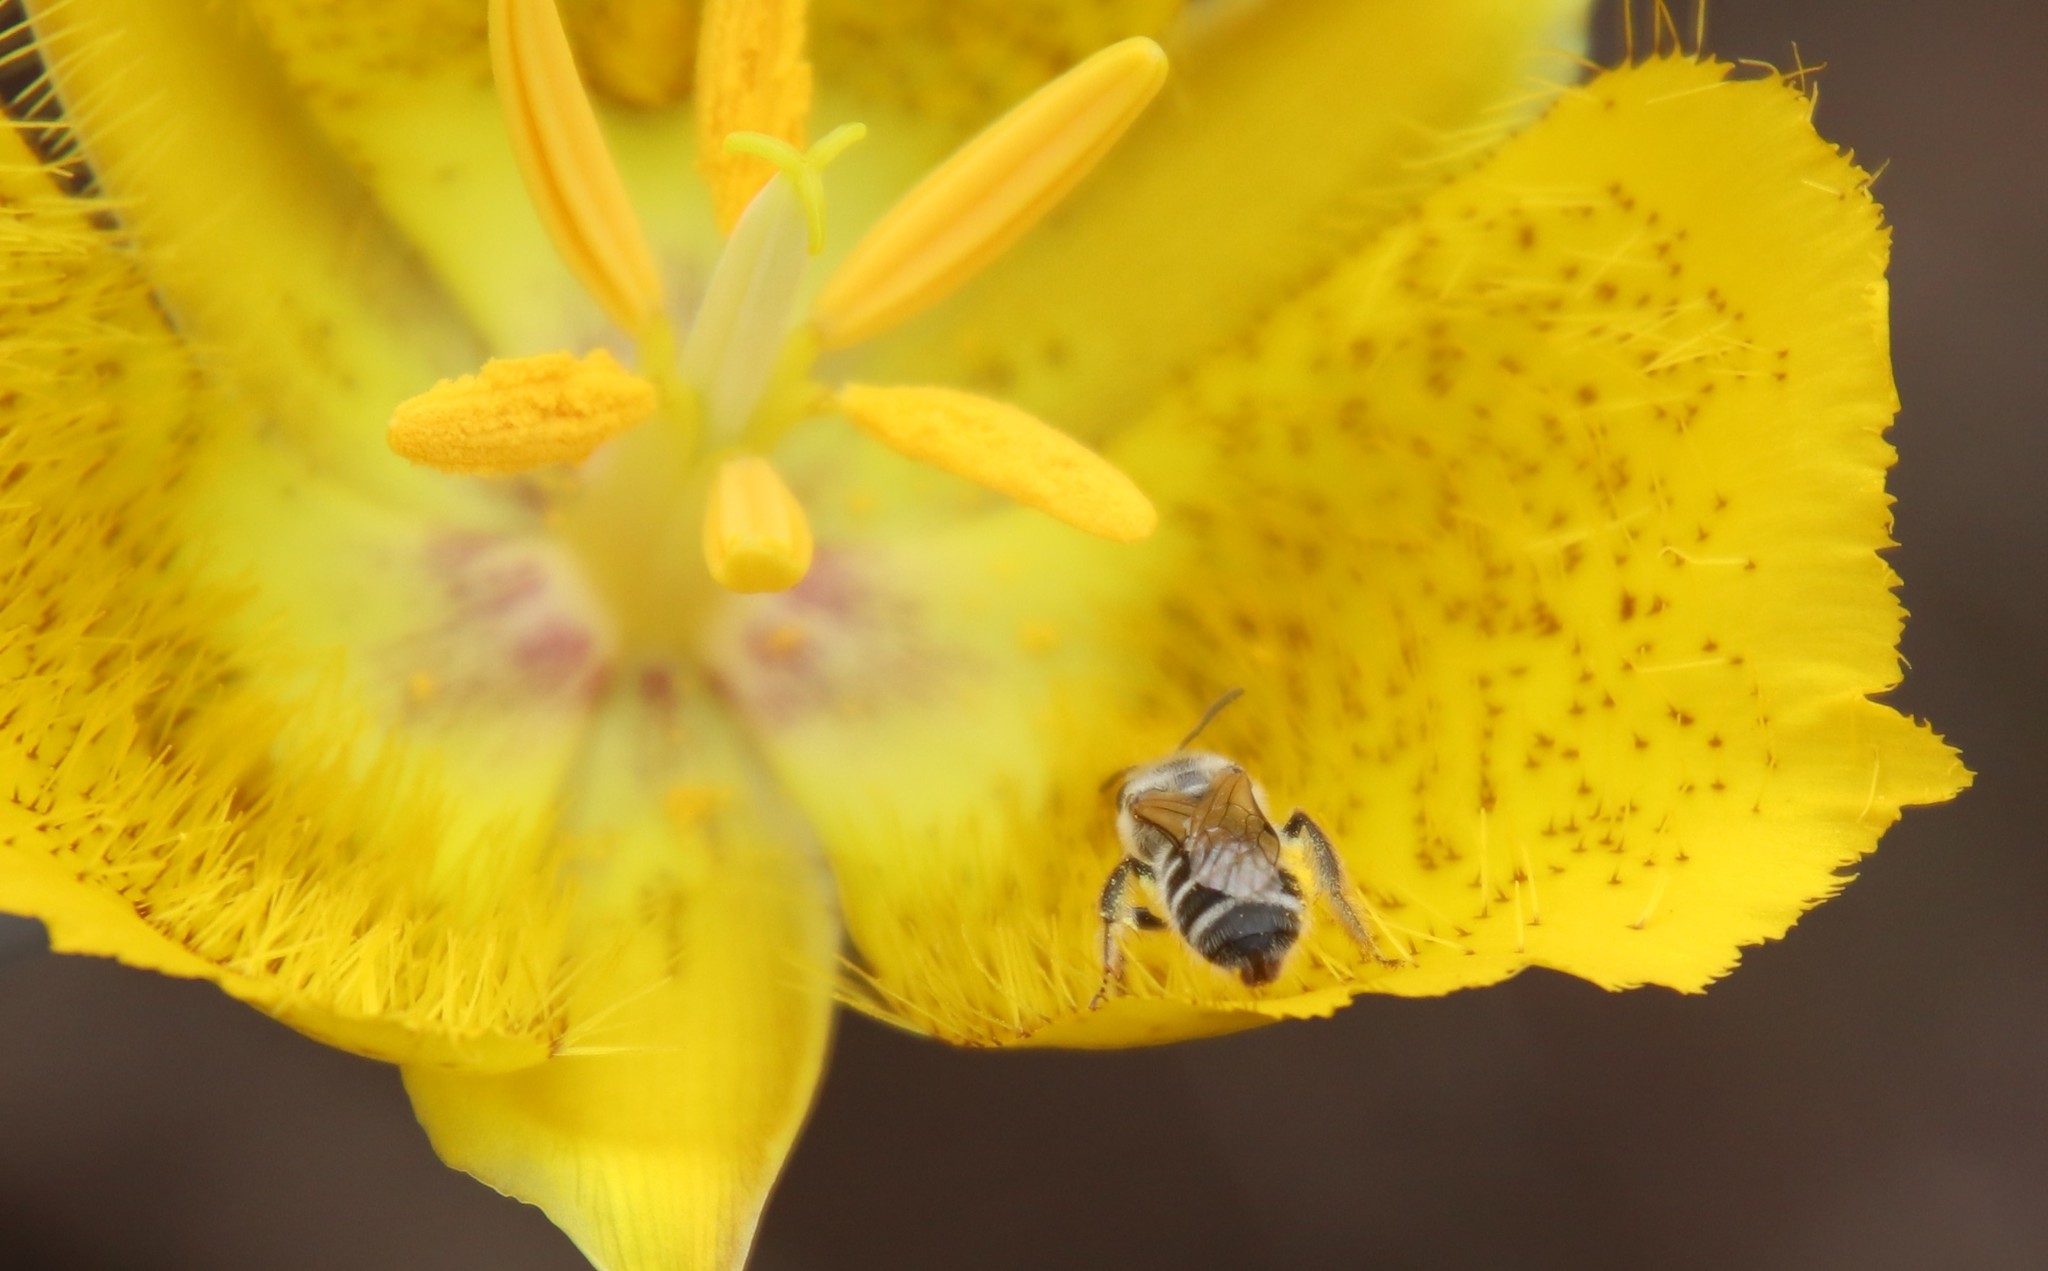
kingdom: Animalia
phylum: Arthropoda
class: Insecta
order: Hymenoptera
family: Halictidae
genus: Lasioglossum
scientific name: Lasioglossum sisymbrii
